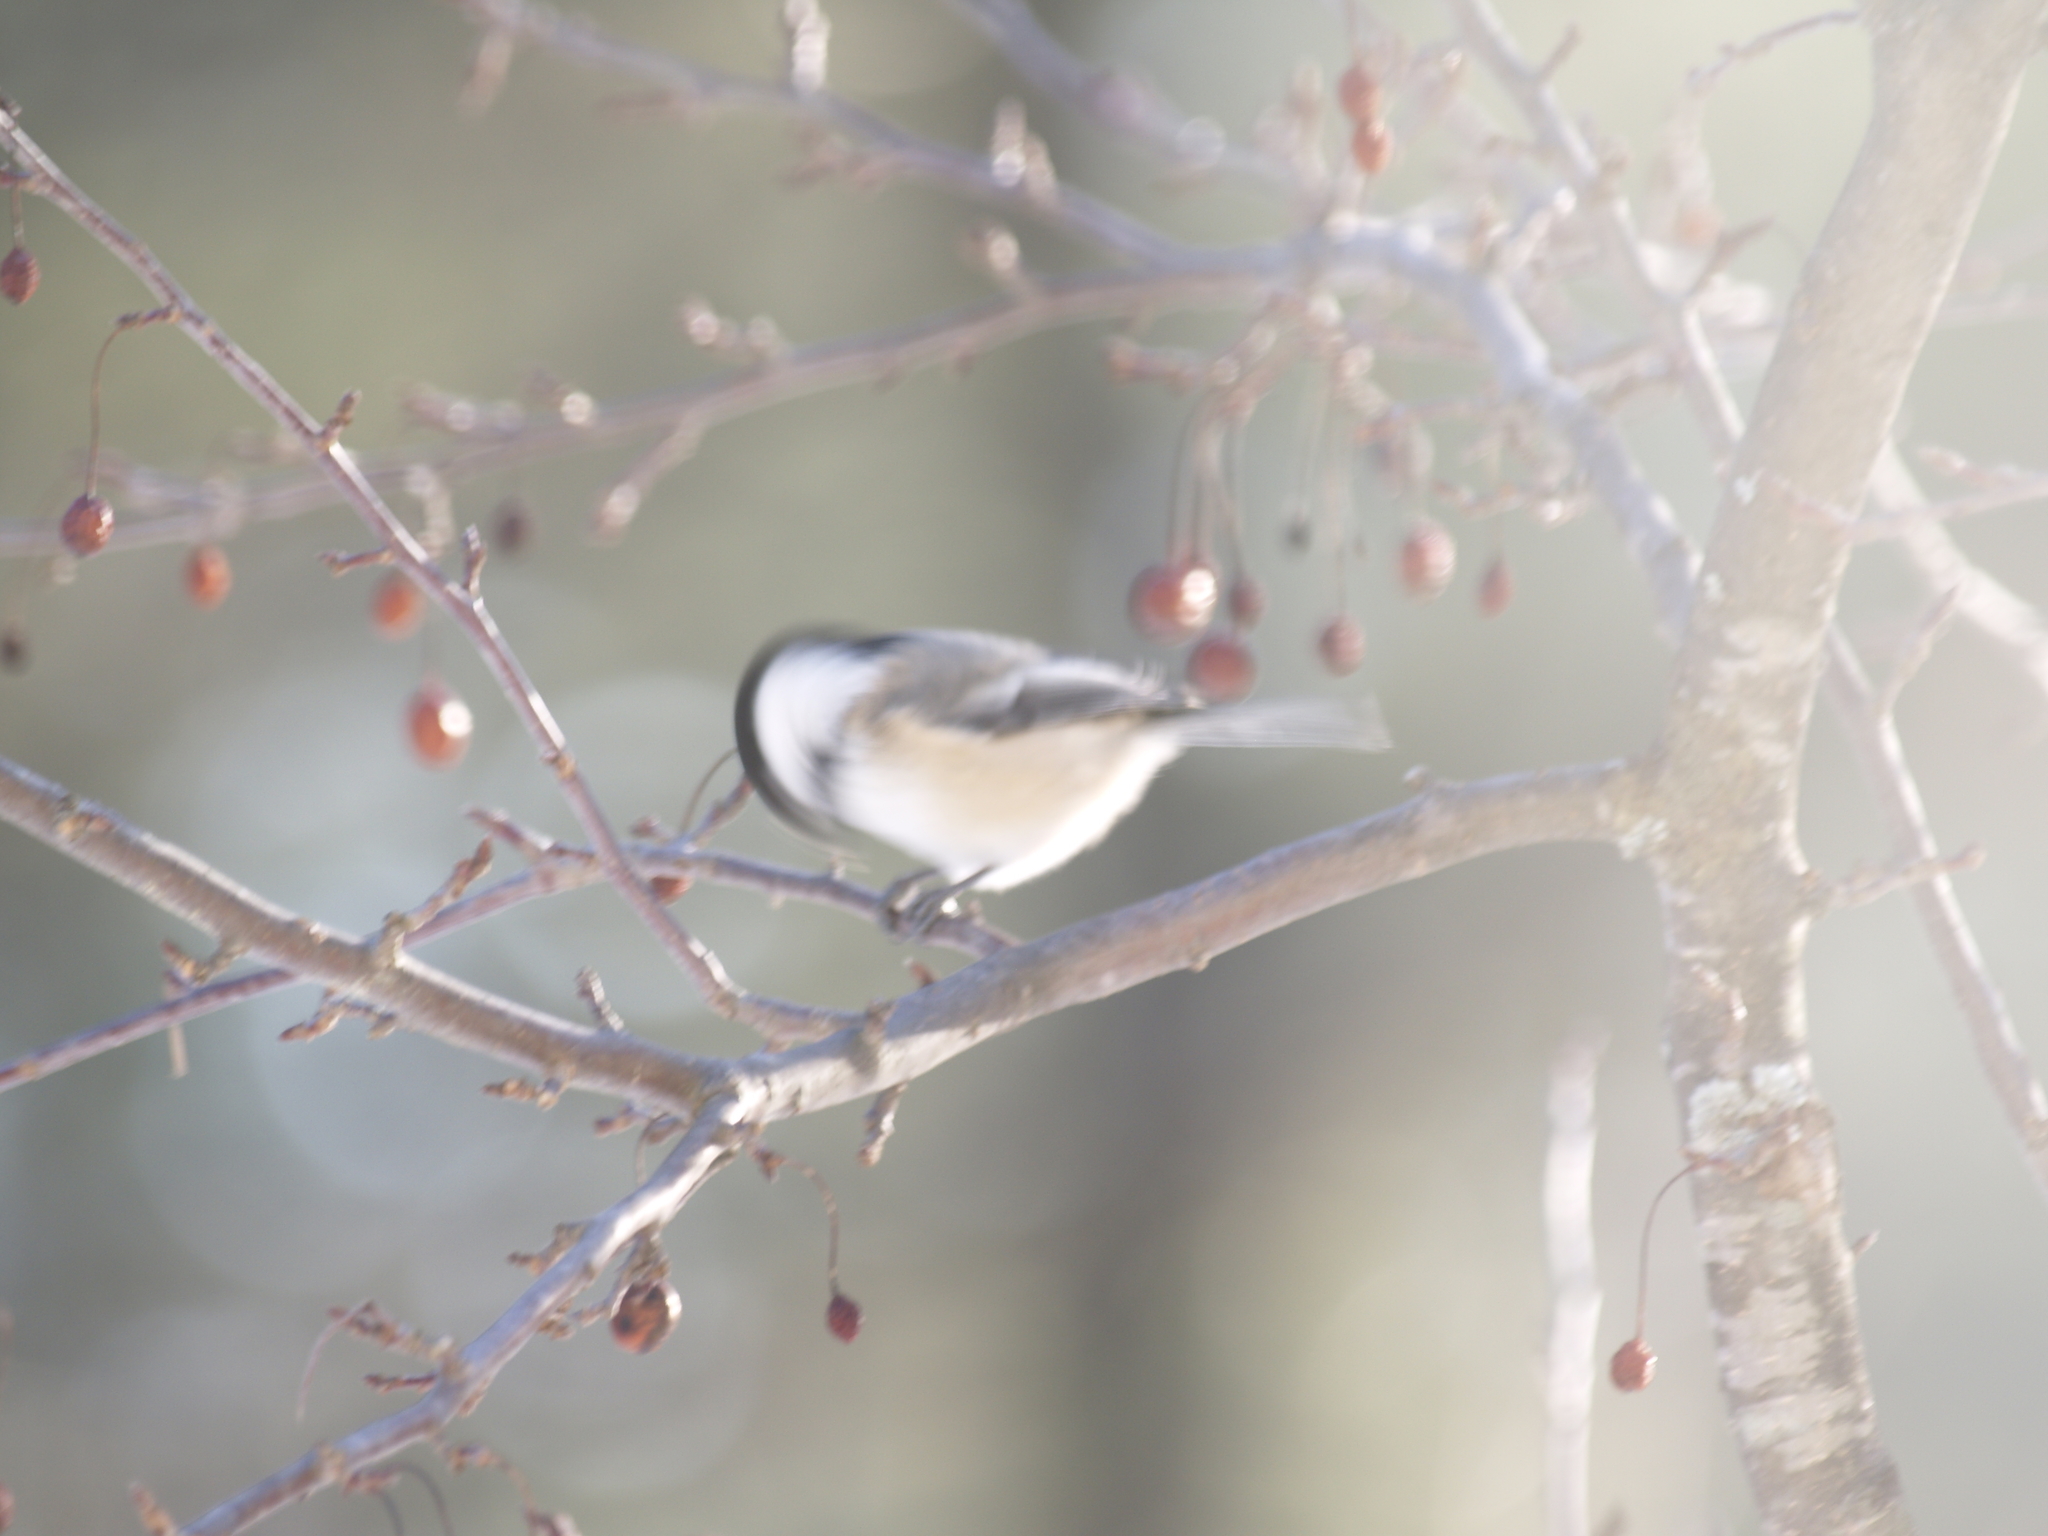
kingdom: Animalia
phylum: Chordata
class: Aves
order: Passeriformes
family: Paridae
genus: Poecile
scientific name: Poecile atricapillus
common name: Black-capped chickadee
